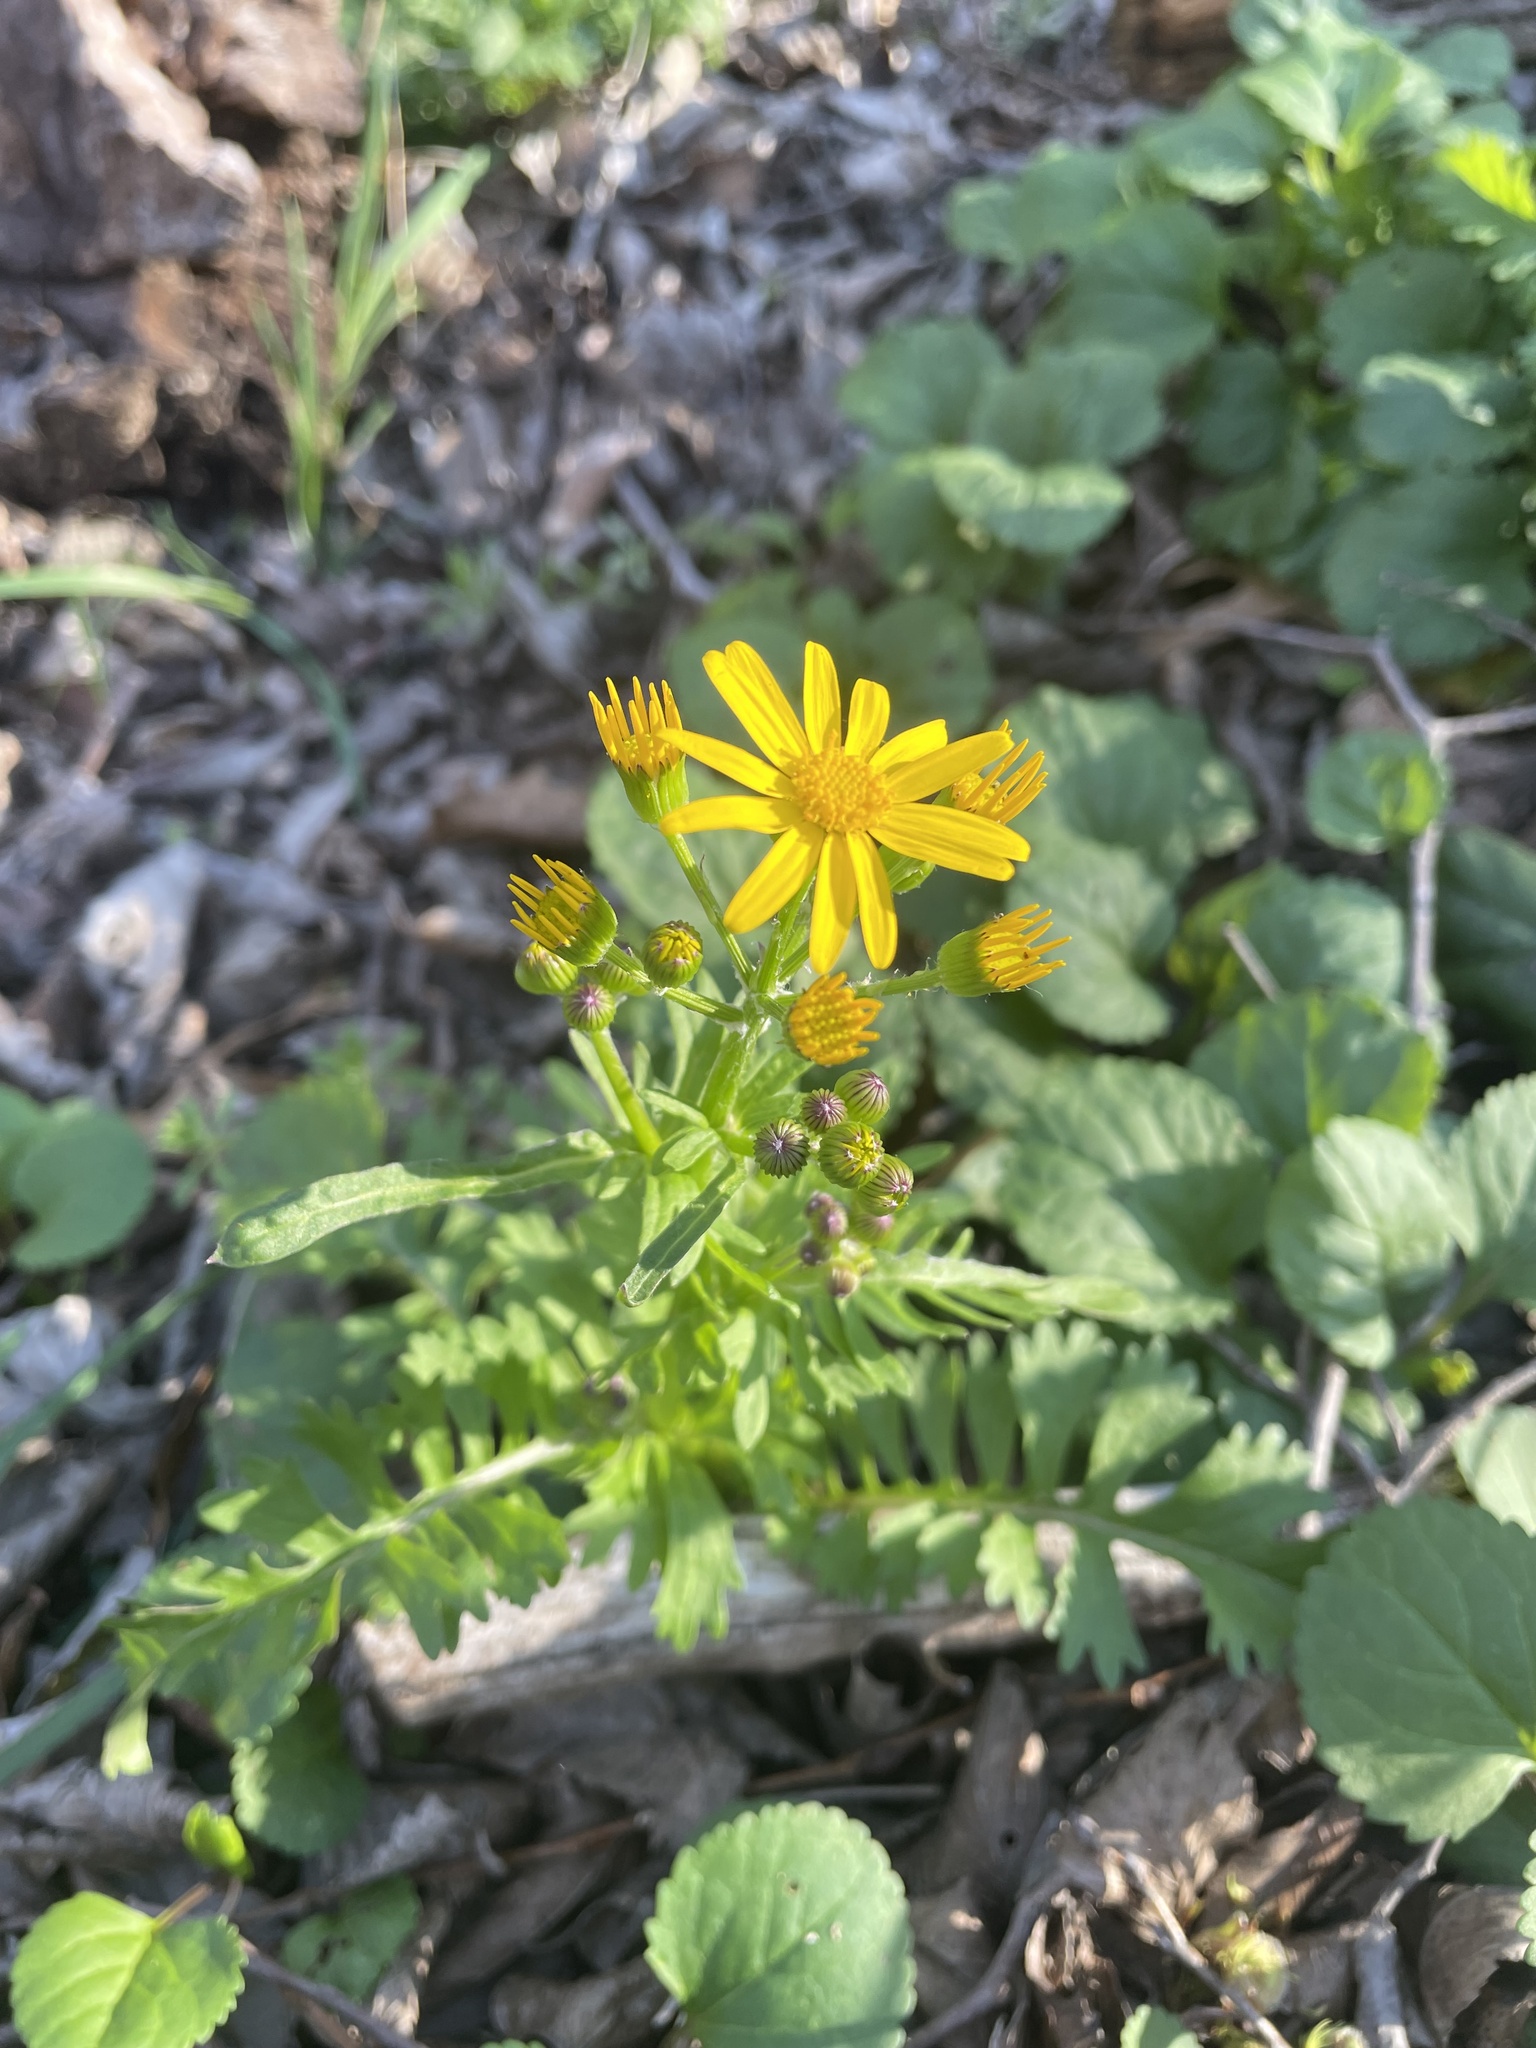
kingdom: Plantae
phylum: Tracheophyta
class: Magnoliopsida
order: Asterales
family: Asteraceae
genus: Packera
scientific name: Packera obovata
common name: Round-leaf ragwort
